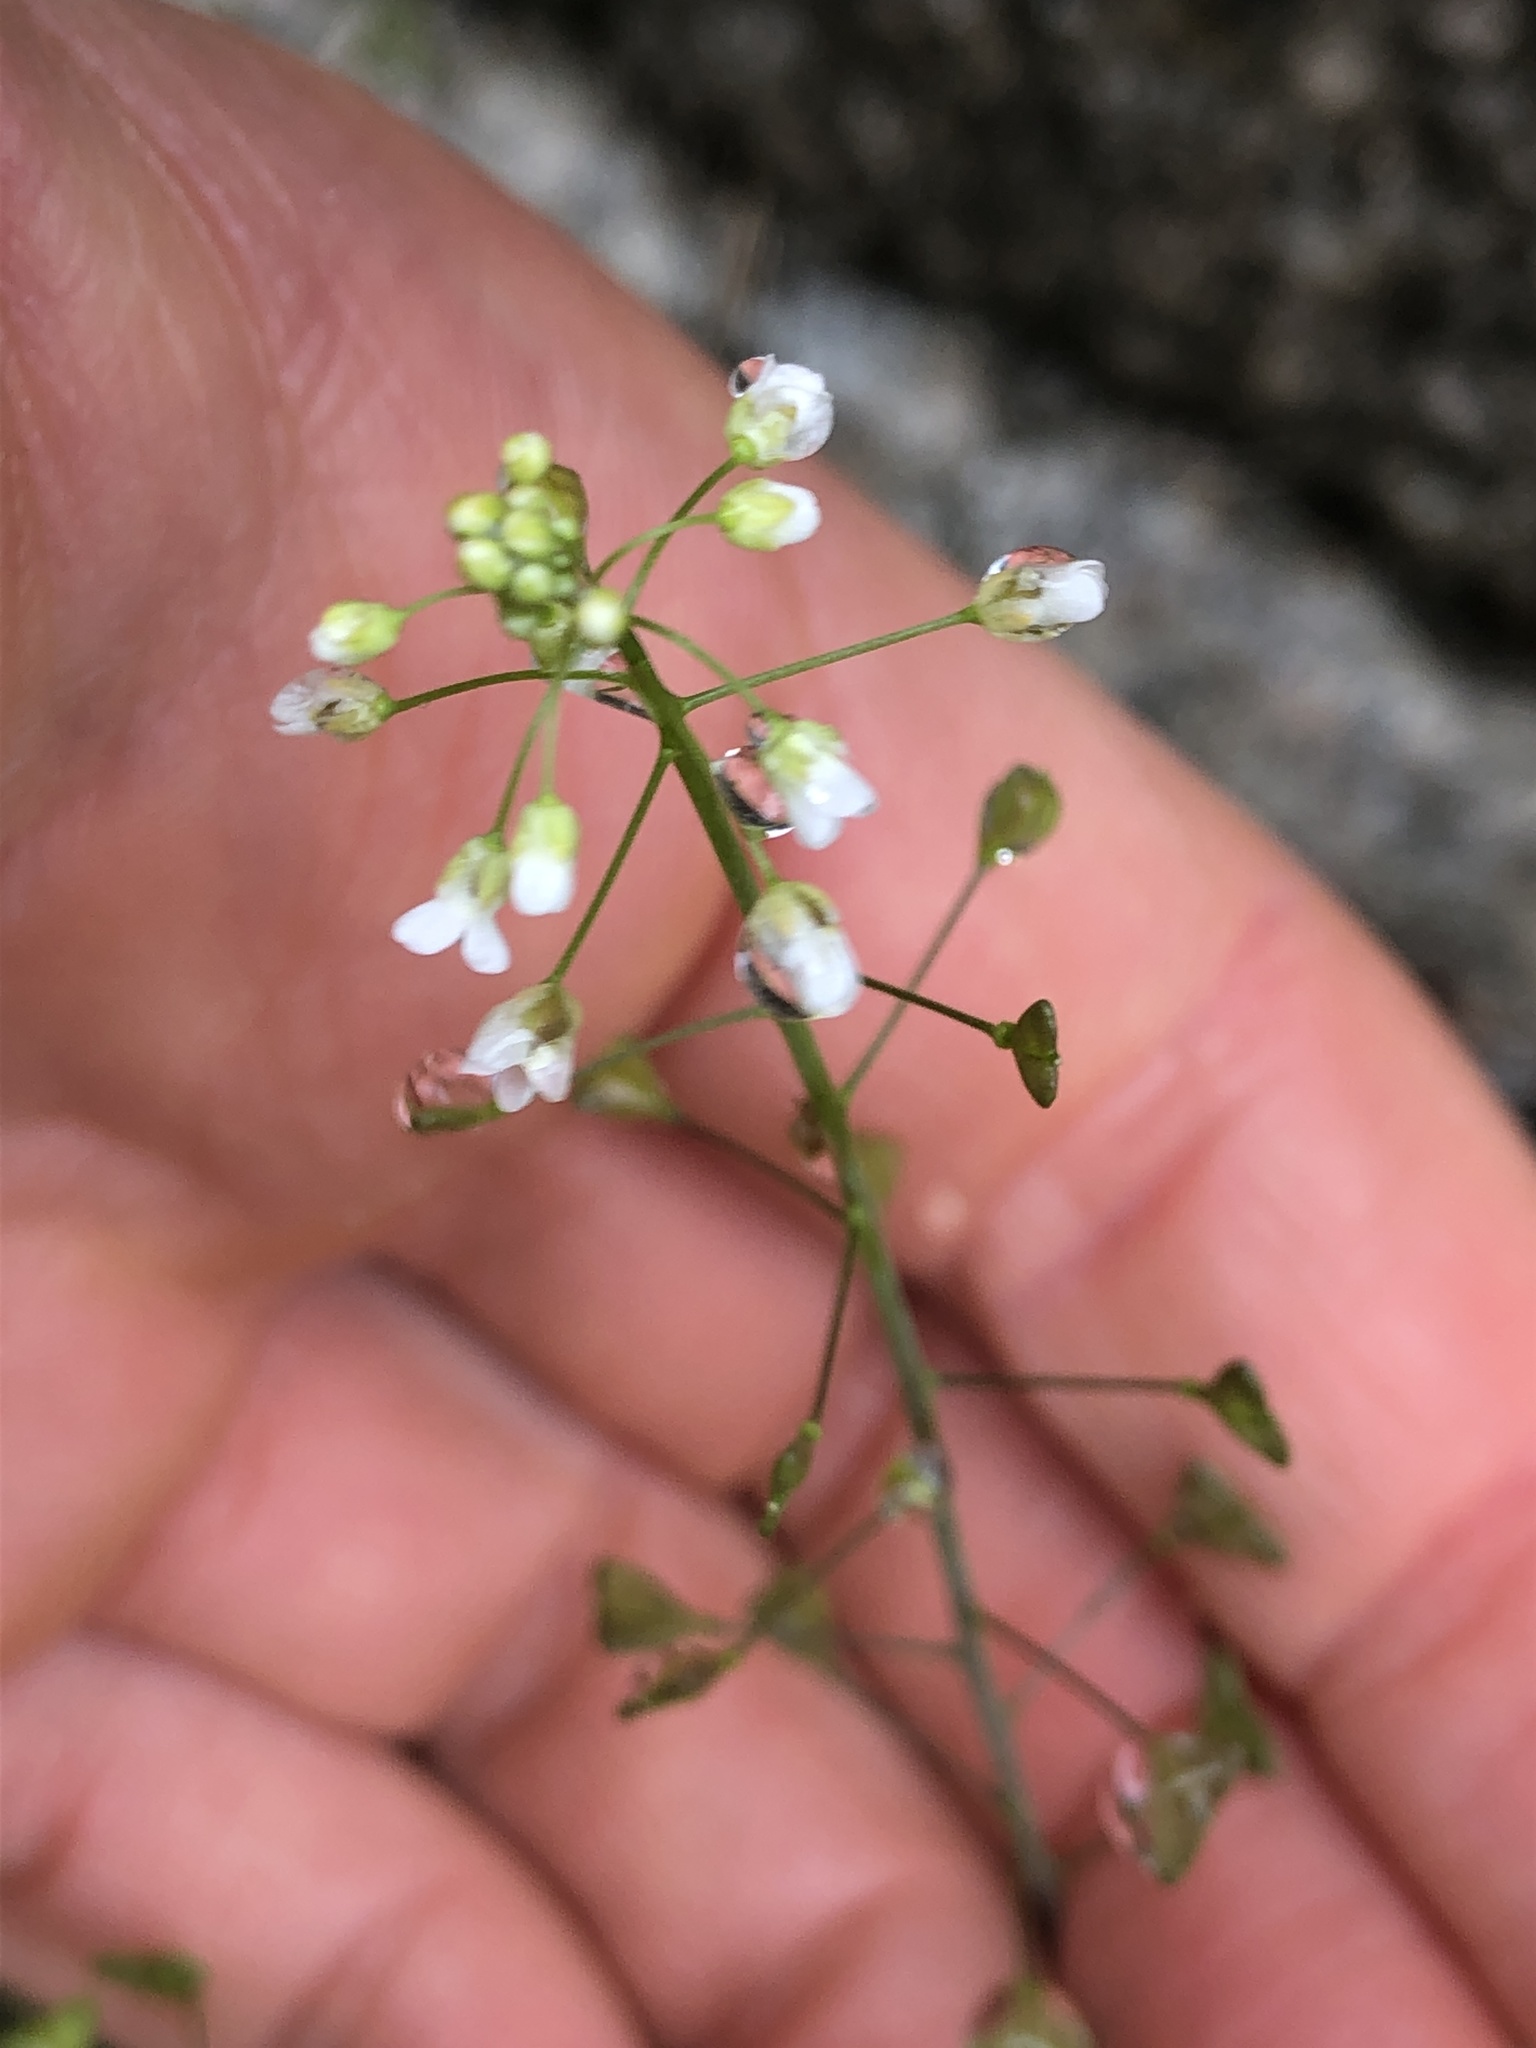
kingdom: Plantae
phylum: Tracheophyta
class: Magnoliopsida
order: Brassicales
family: Brassicaceae
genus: Capsella
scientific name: Capsella bursa-pastoris
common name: Shepherd's purse
